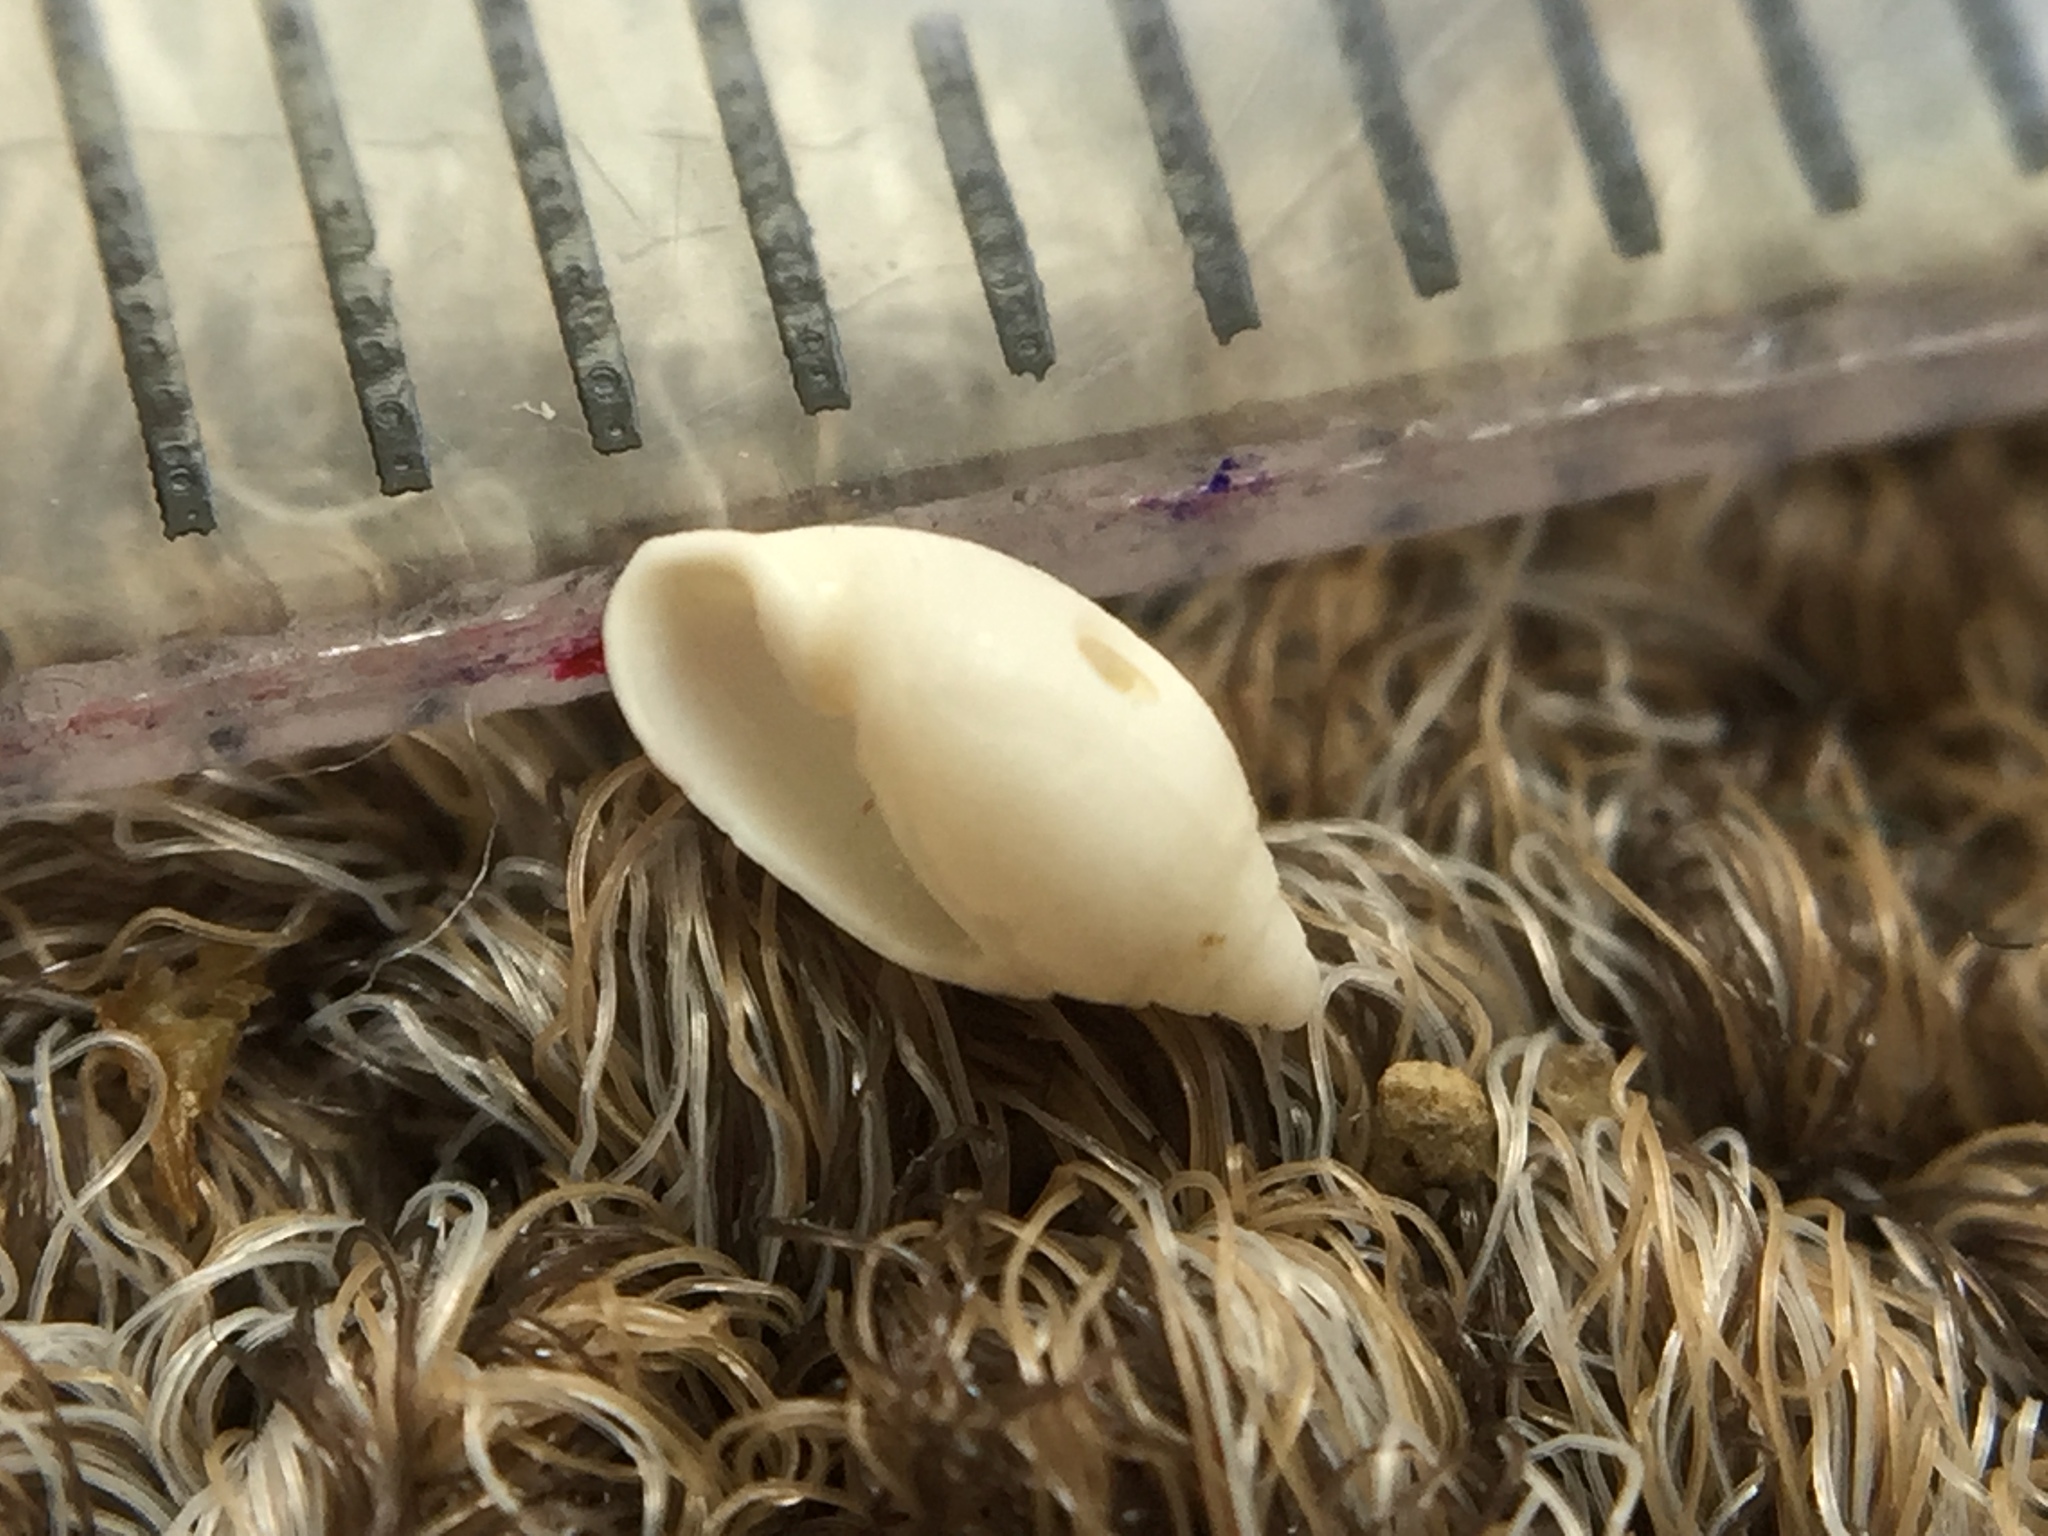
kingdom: Animalia
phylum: Mollusca
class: Gastropoda
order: Cephalaspidea
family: Acteonidae
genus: Pupa
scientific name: Pupa affinis
